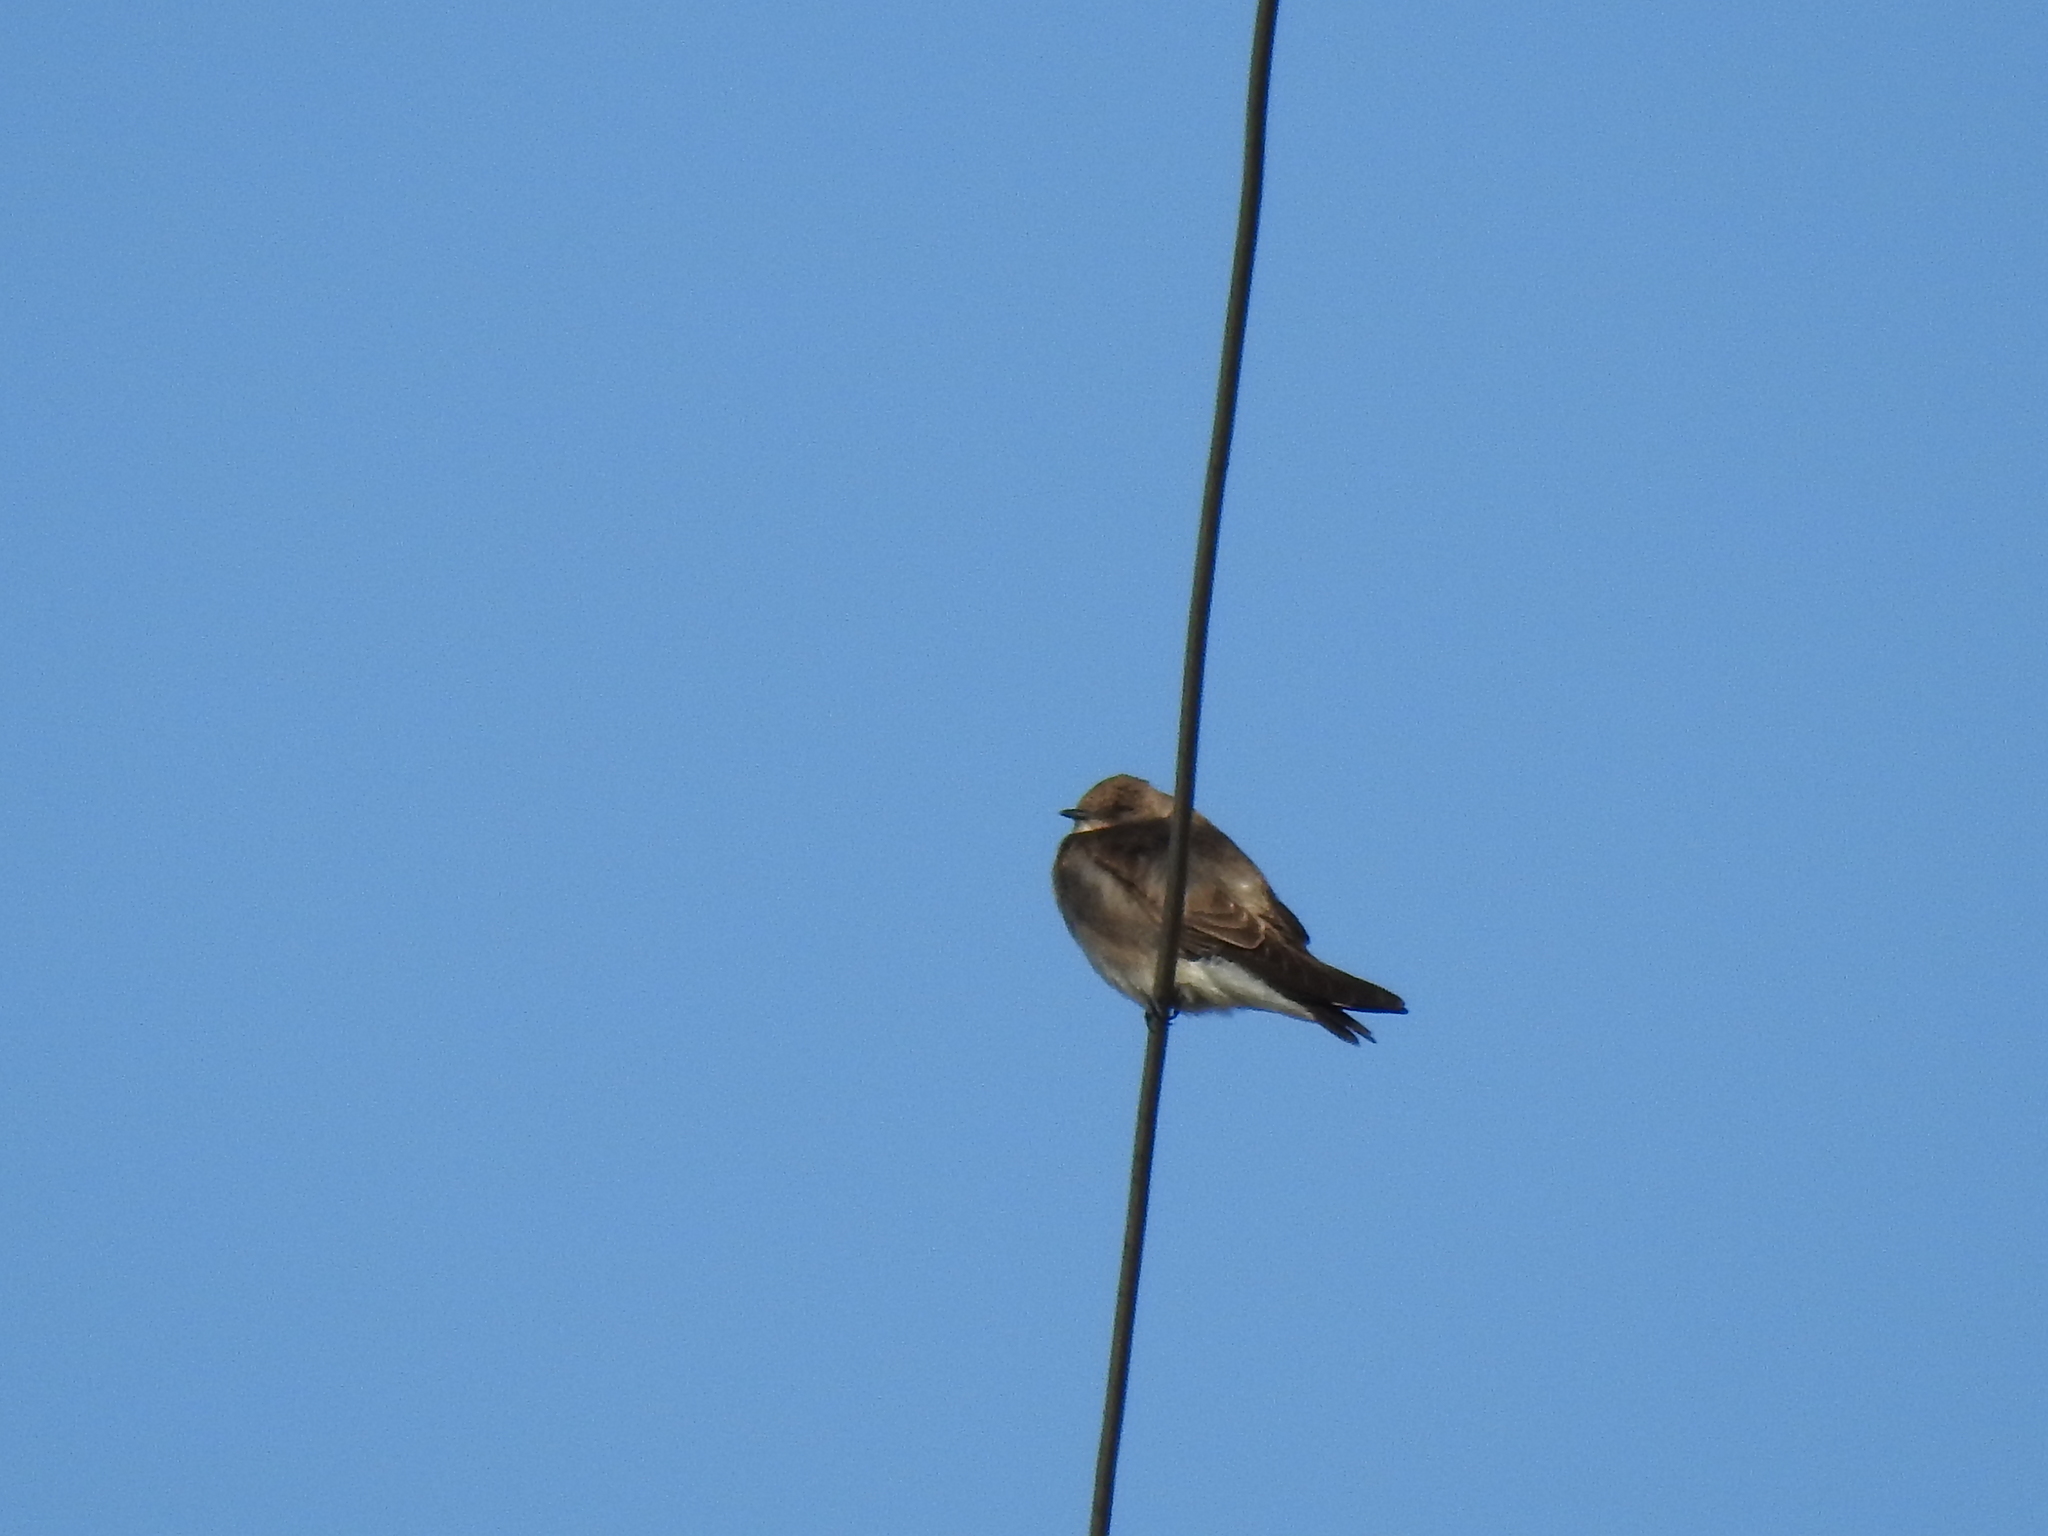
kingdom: Animalia
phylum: Chordata
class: Aves
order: Passeriformes
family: Hirundinidae
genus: Stelgidopteryx
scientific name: Stelgidopteryx serripennis
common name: Northern rough-winged swallow
